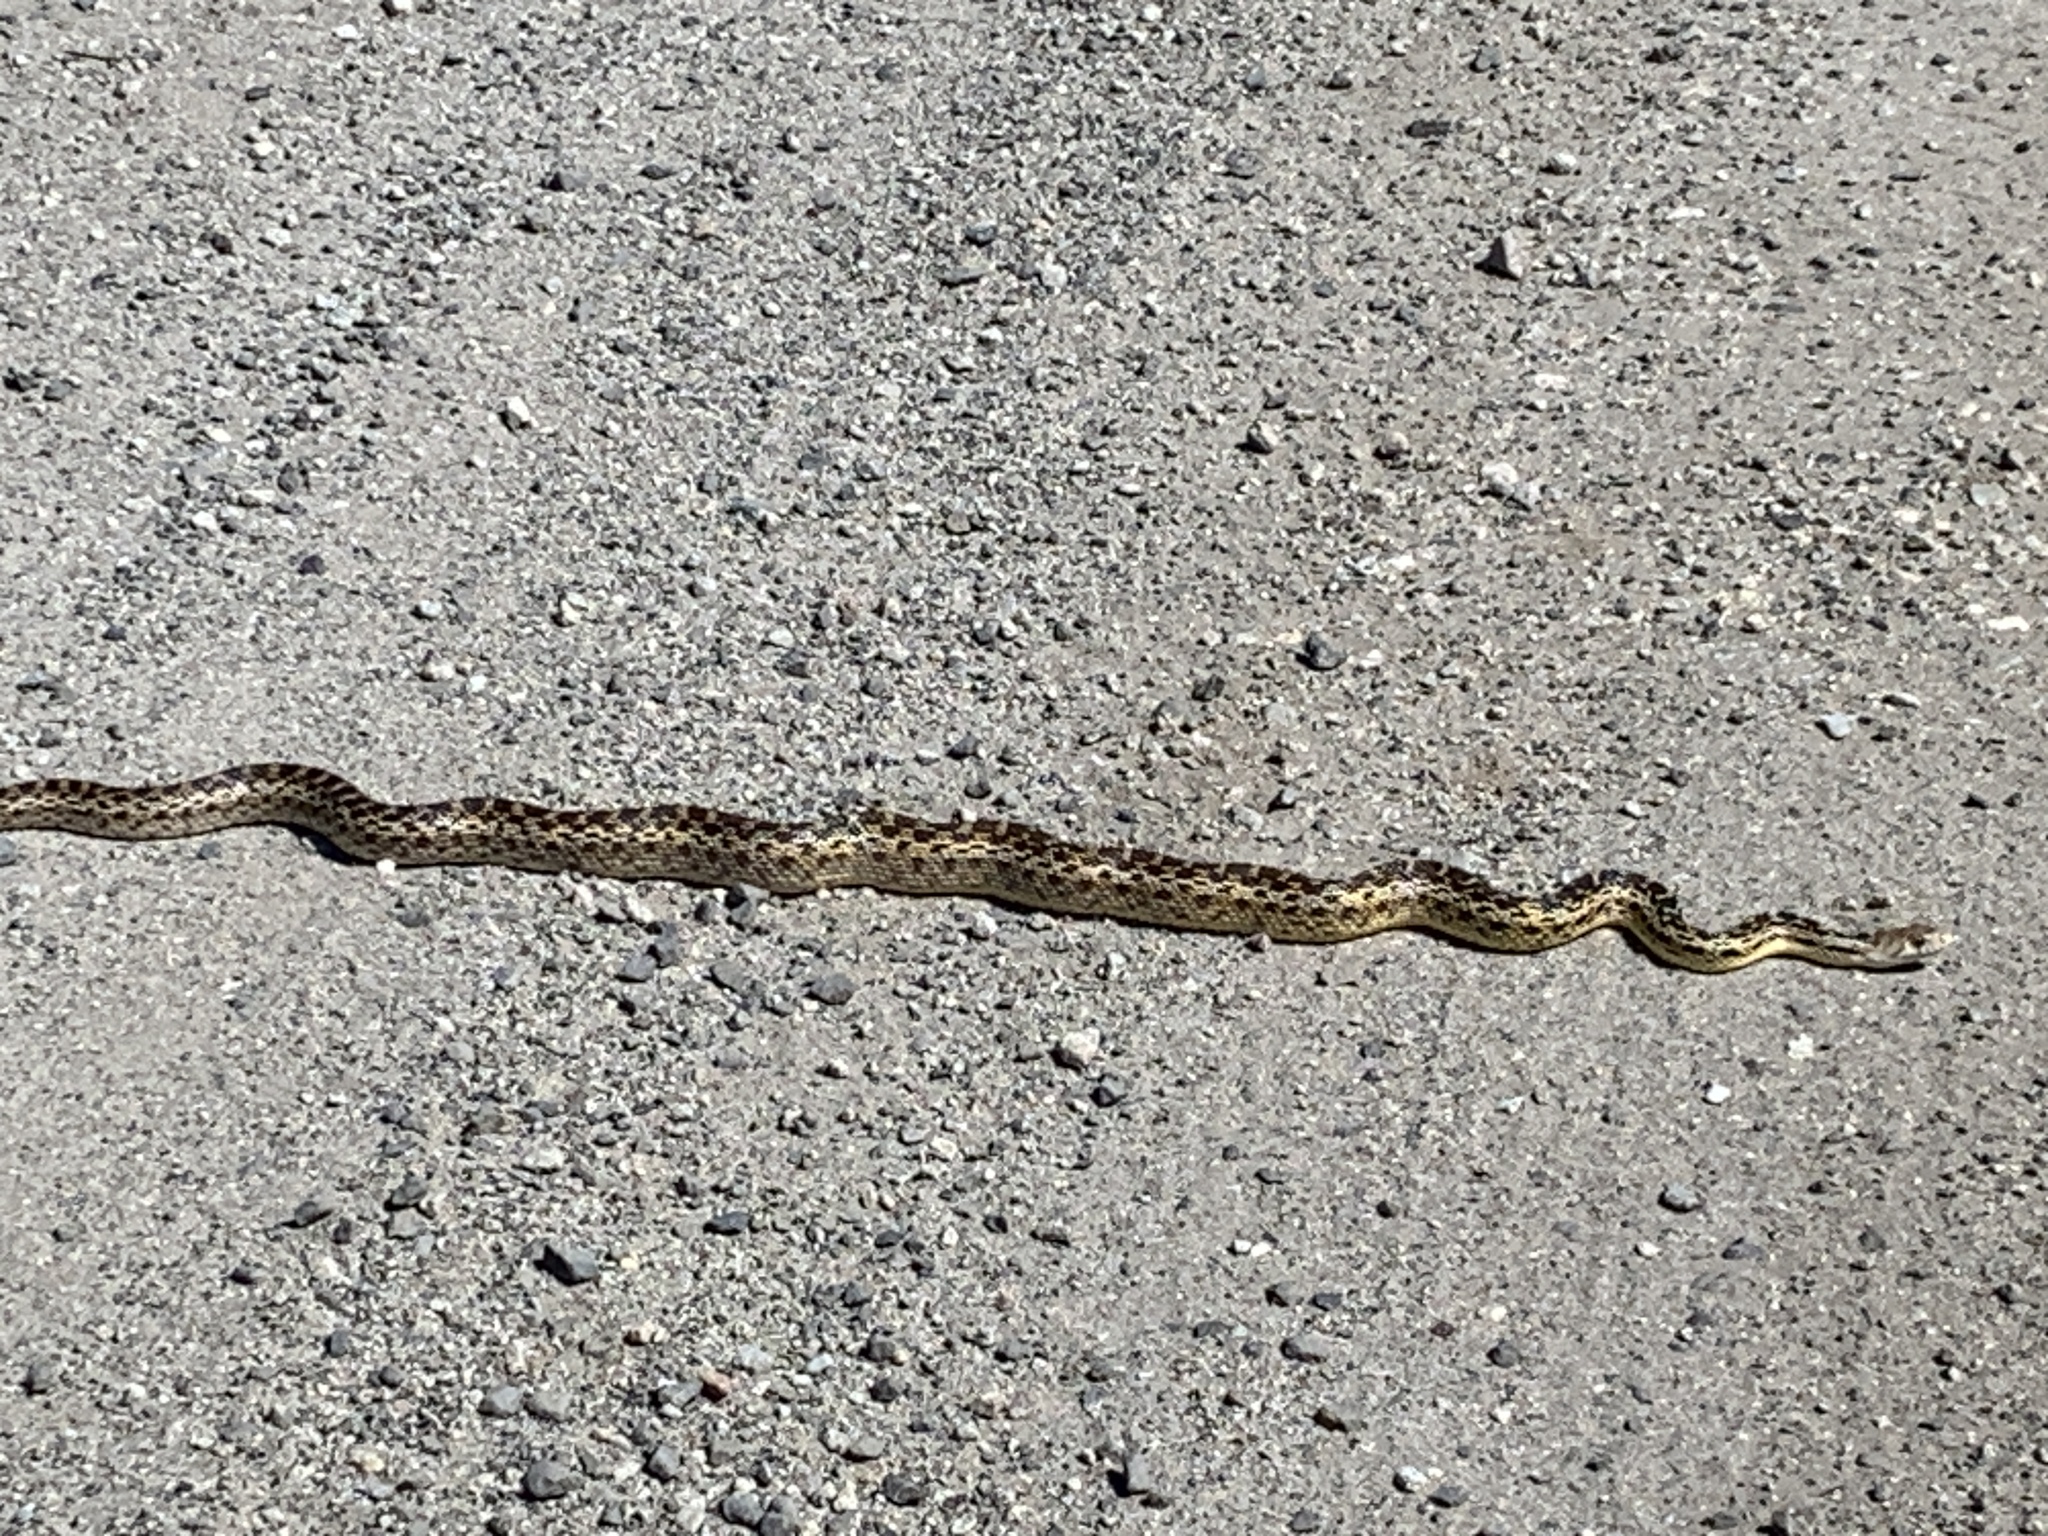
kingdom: Animalia
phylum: Chordata
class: Squamata
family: Colubridae
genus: Pituophis
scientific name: Pituophis catenifer
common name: Gopher snake
